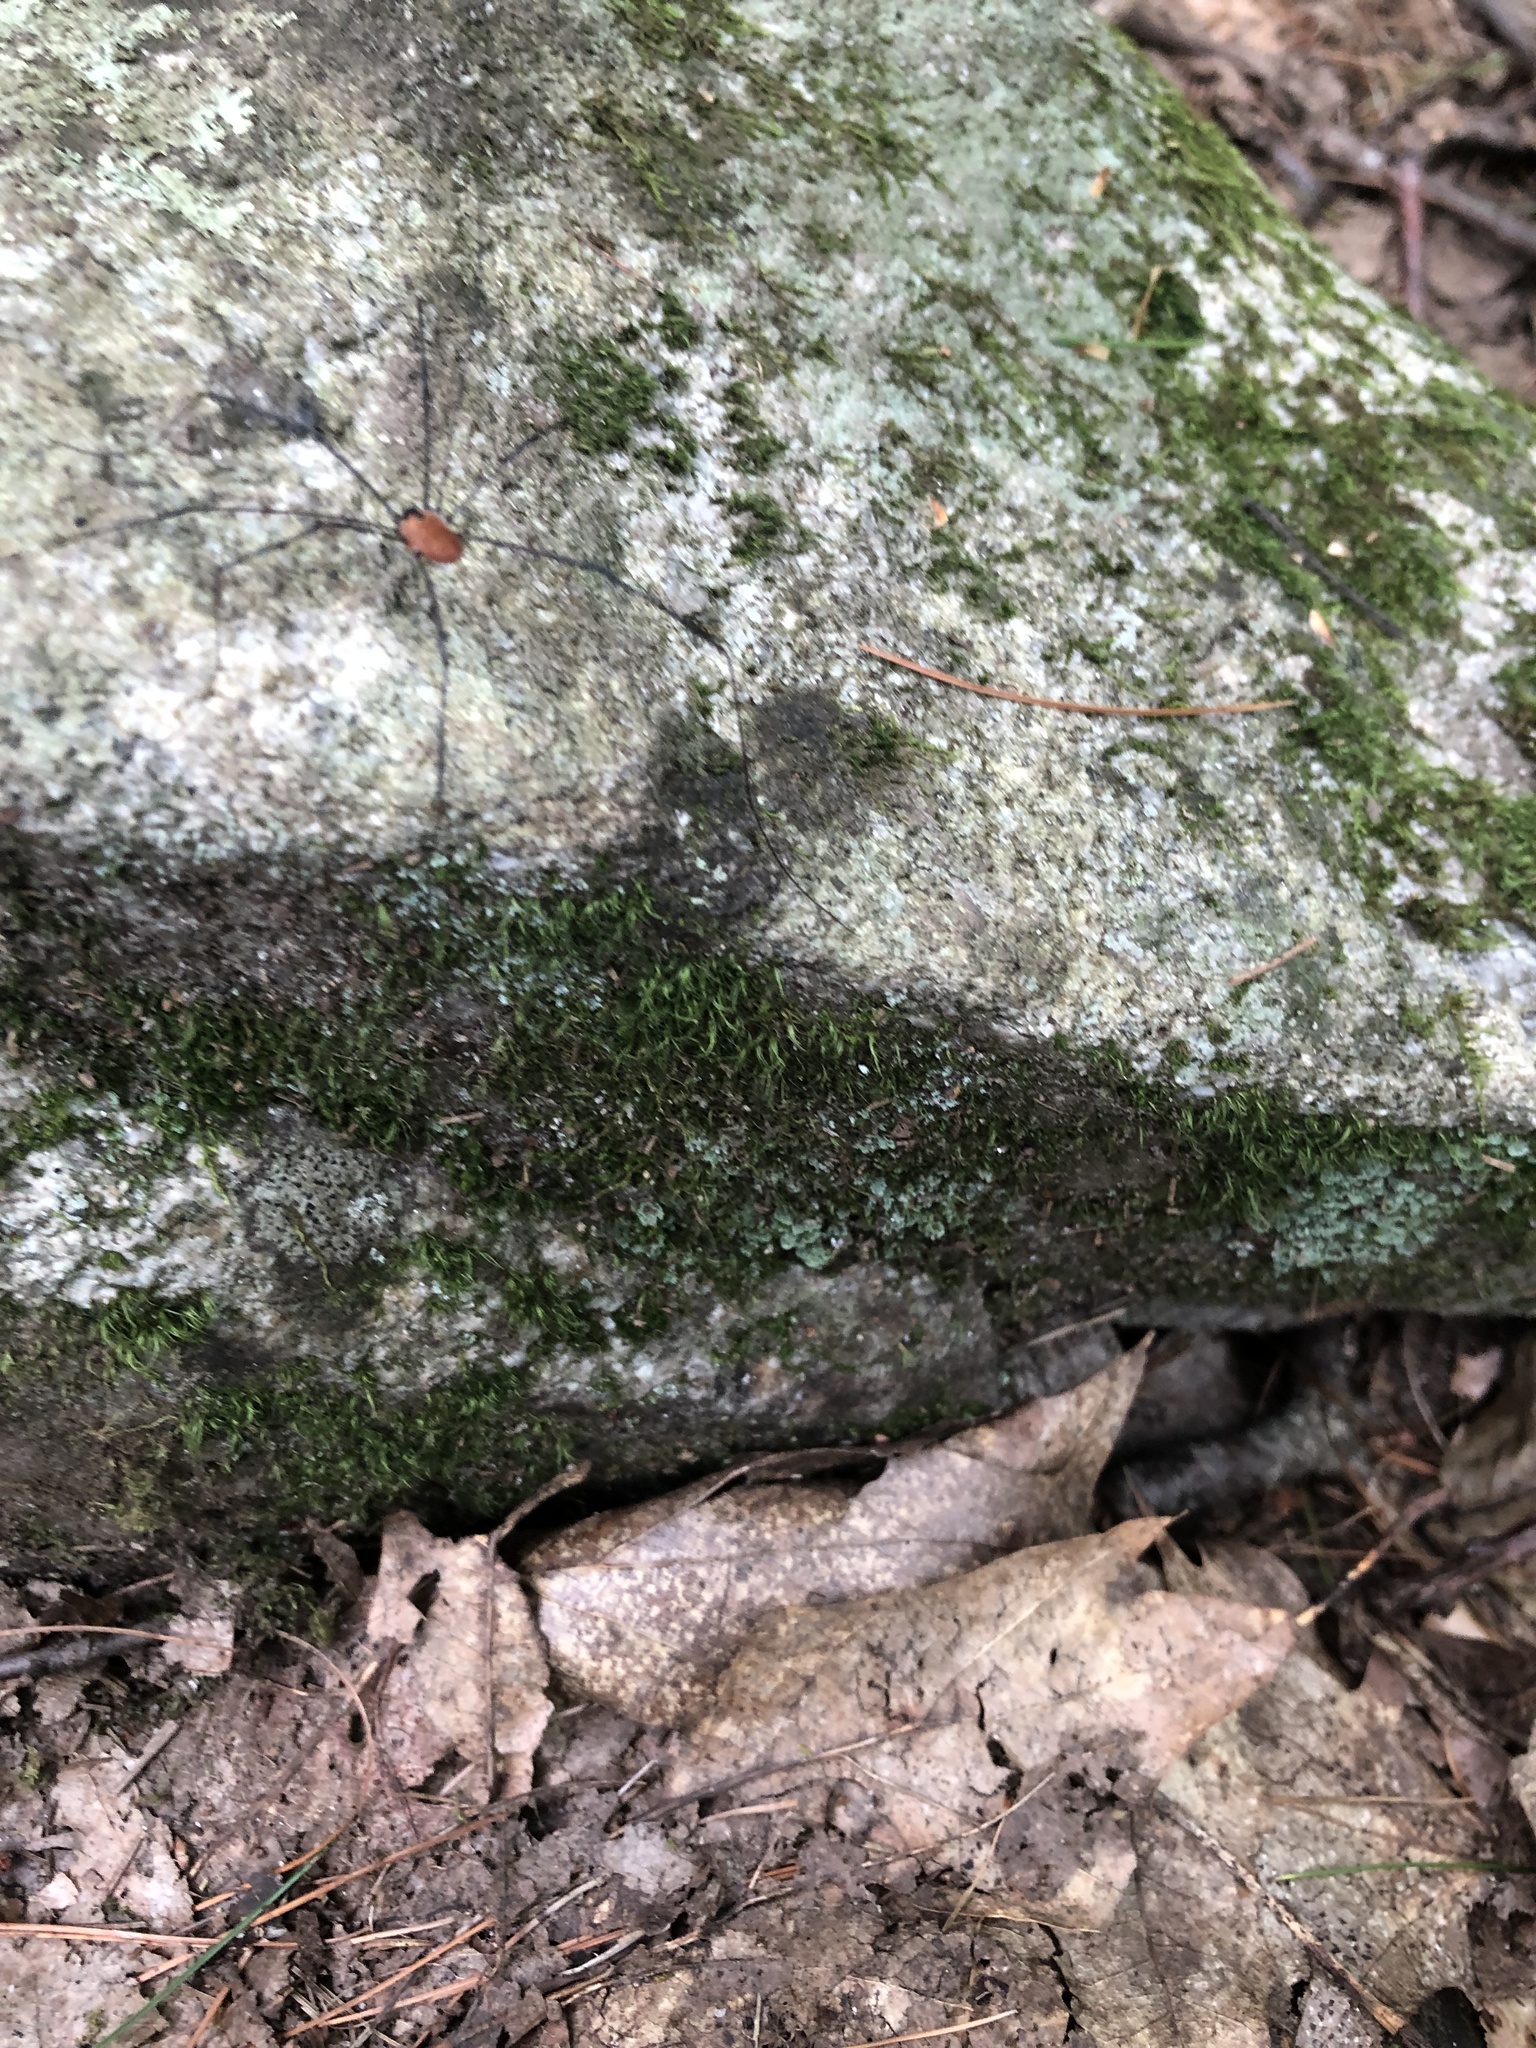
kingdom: Animalia
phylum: Arthropoda
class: Arachnida
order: Opiliones
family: Sclerosomatidae
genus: Leiobunum
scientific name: Leiobunum nigropalpi
